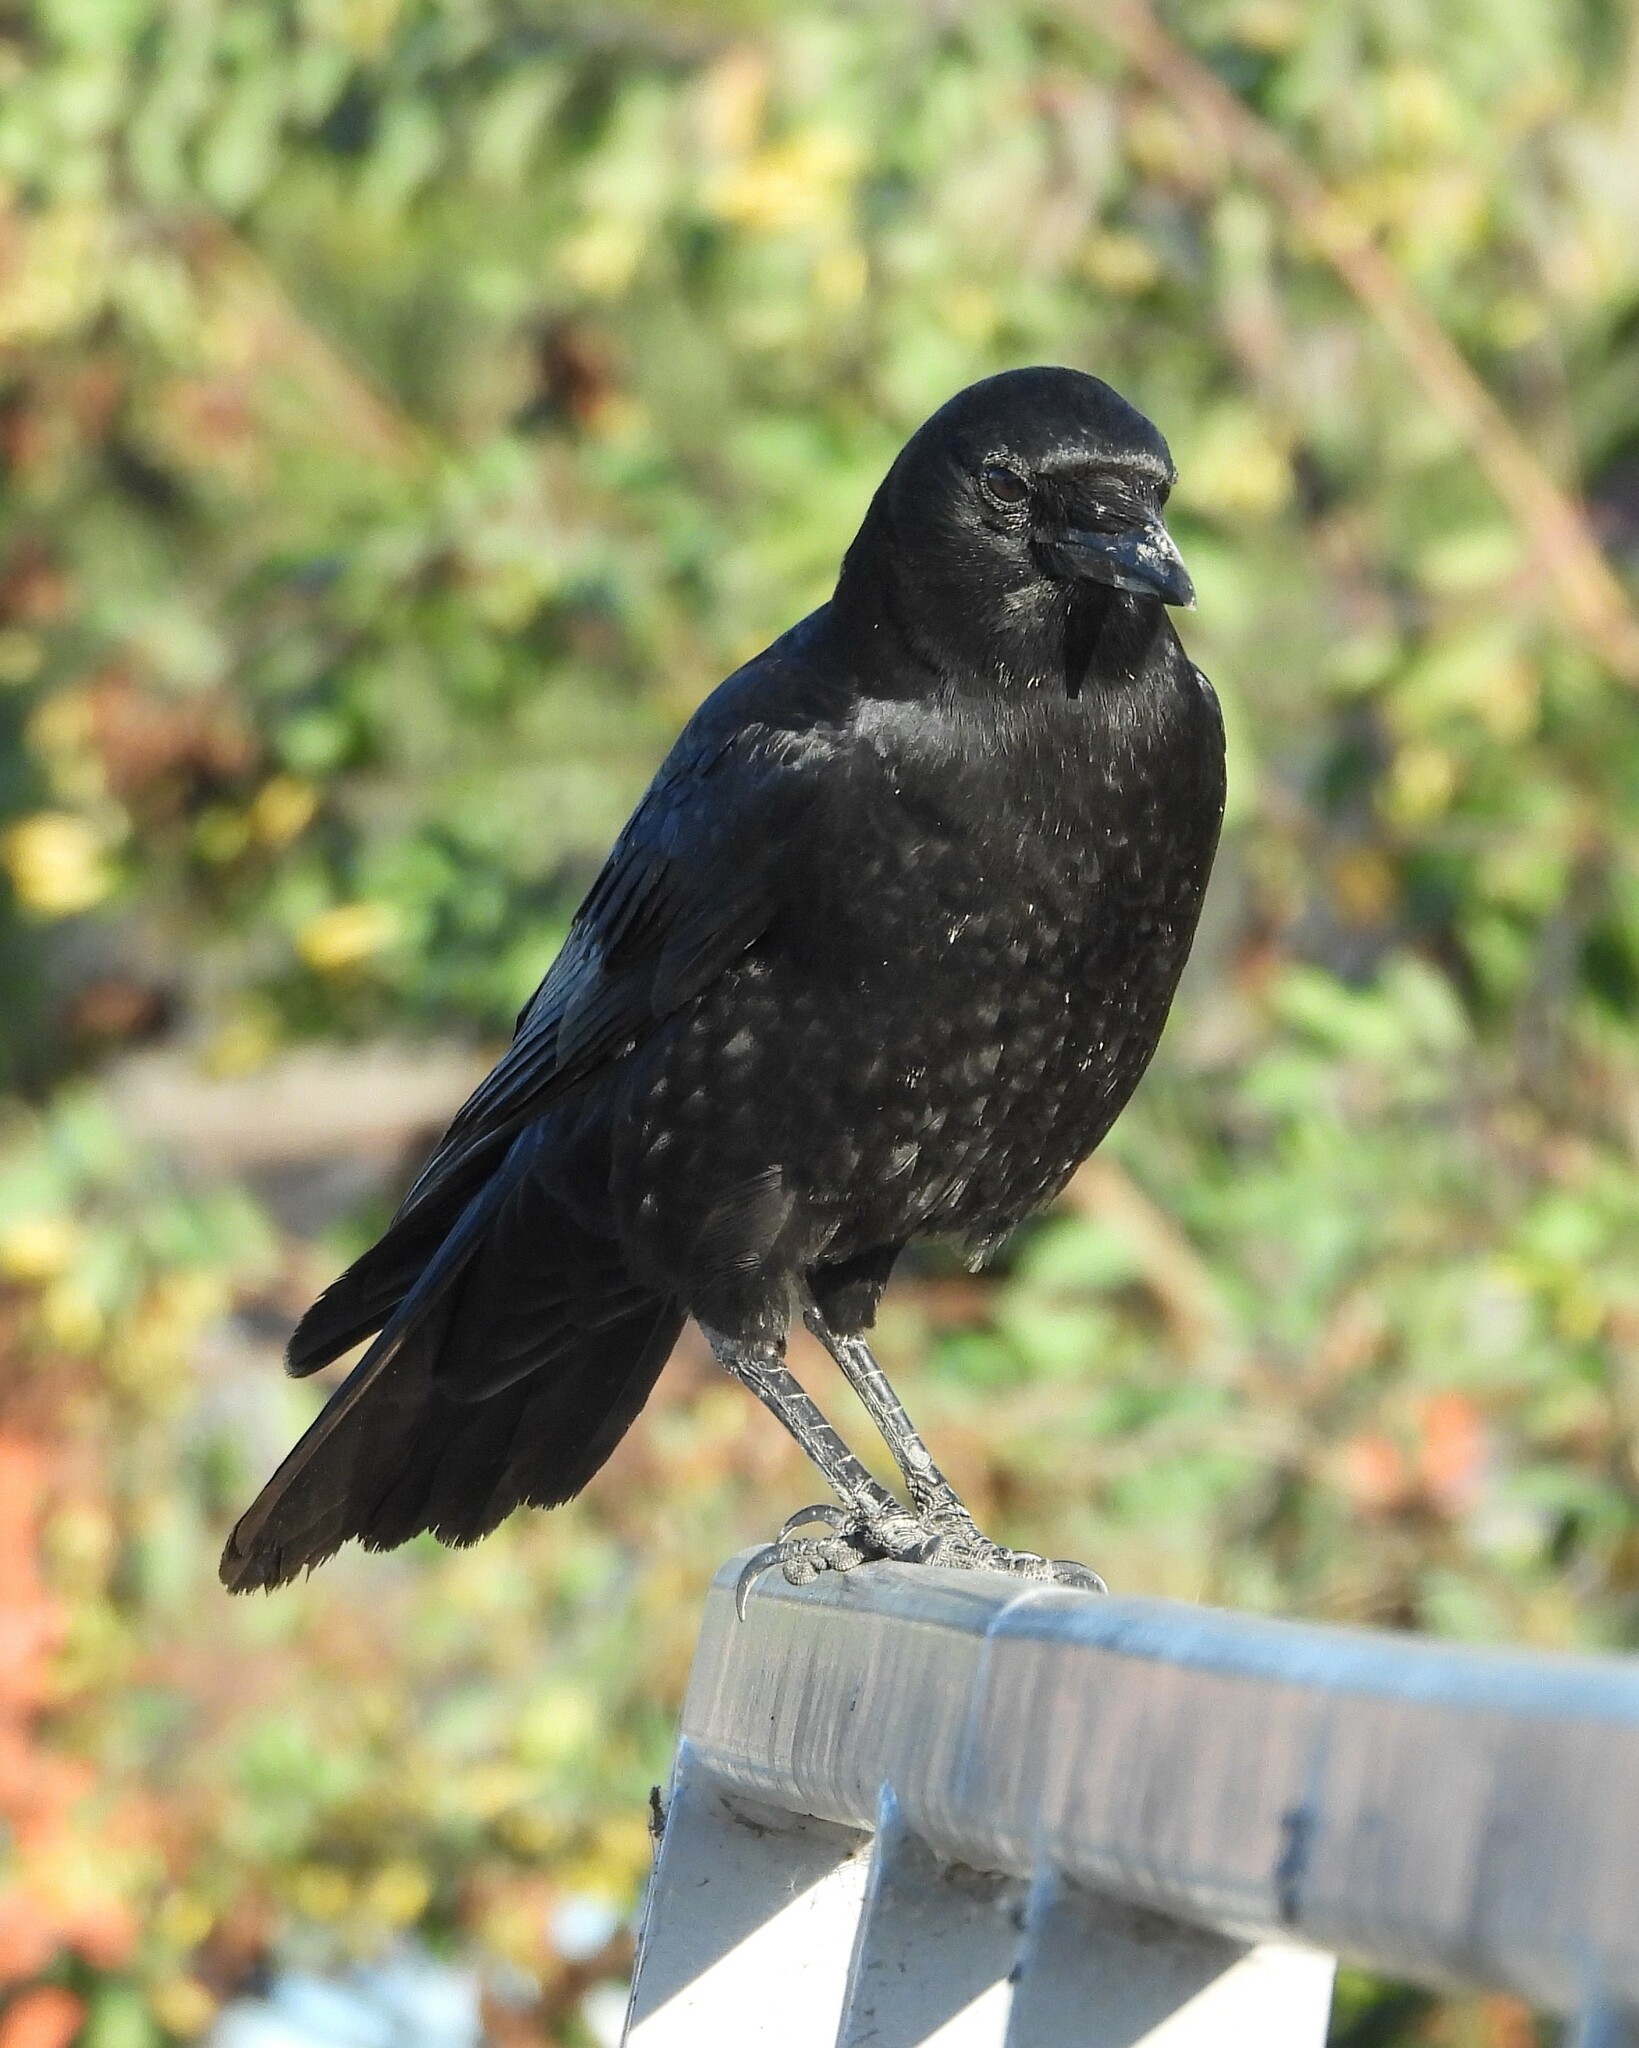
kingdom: Animalia
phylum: Chordata
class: Aves
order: Passeriformes
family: Corvidae
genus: Corvus
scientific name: Corvus brachyrhynchos
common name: American crow
